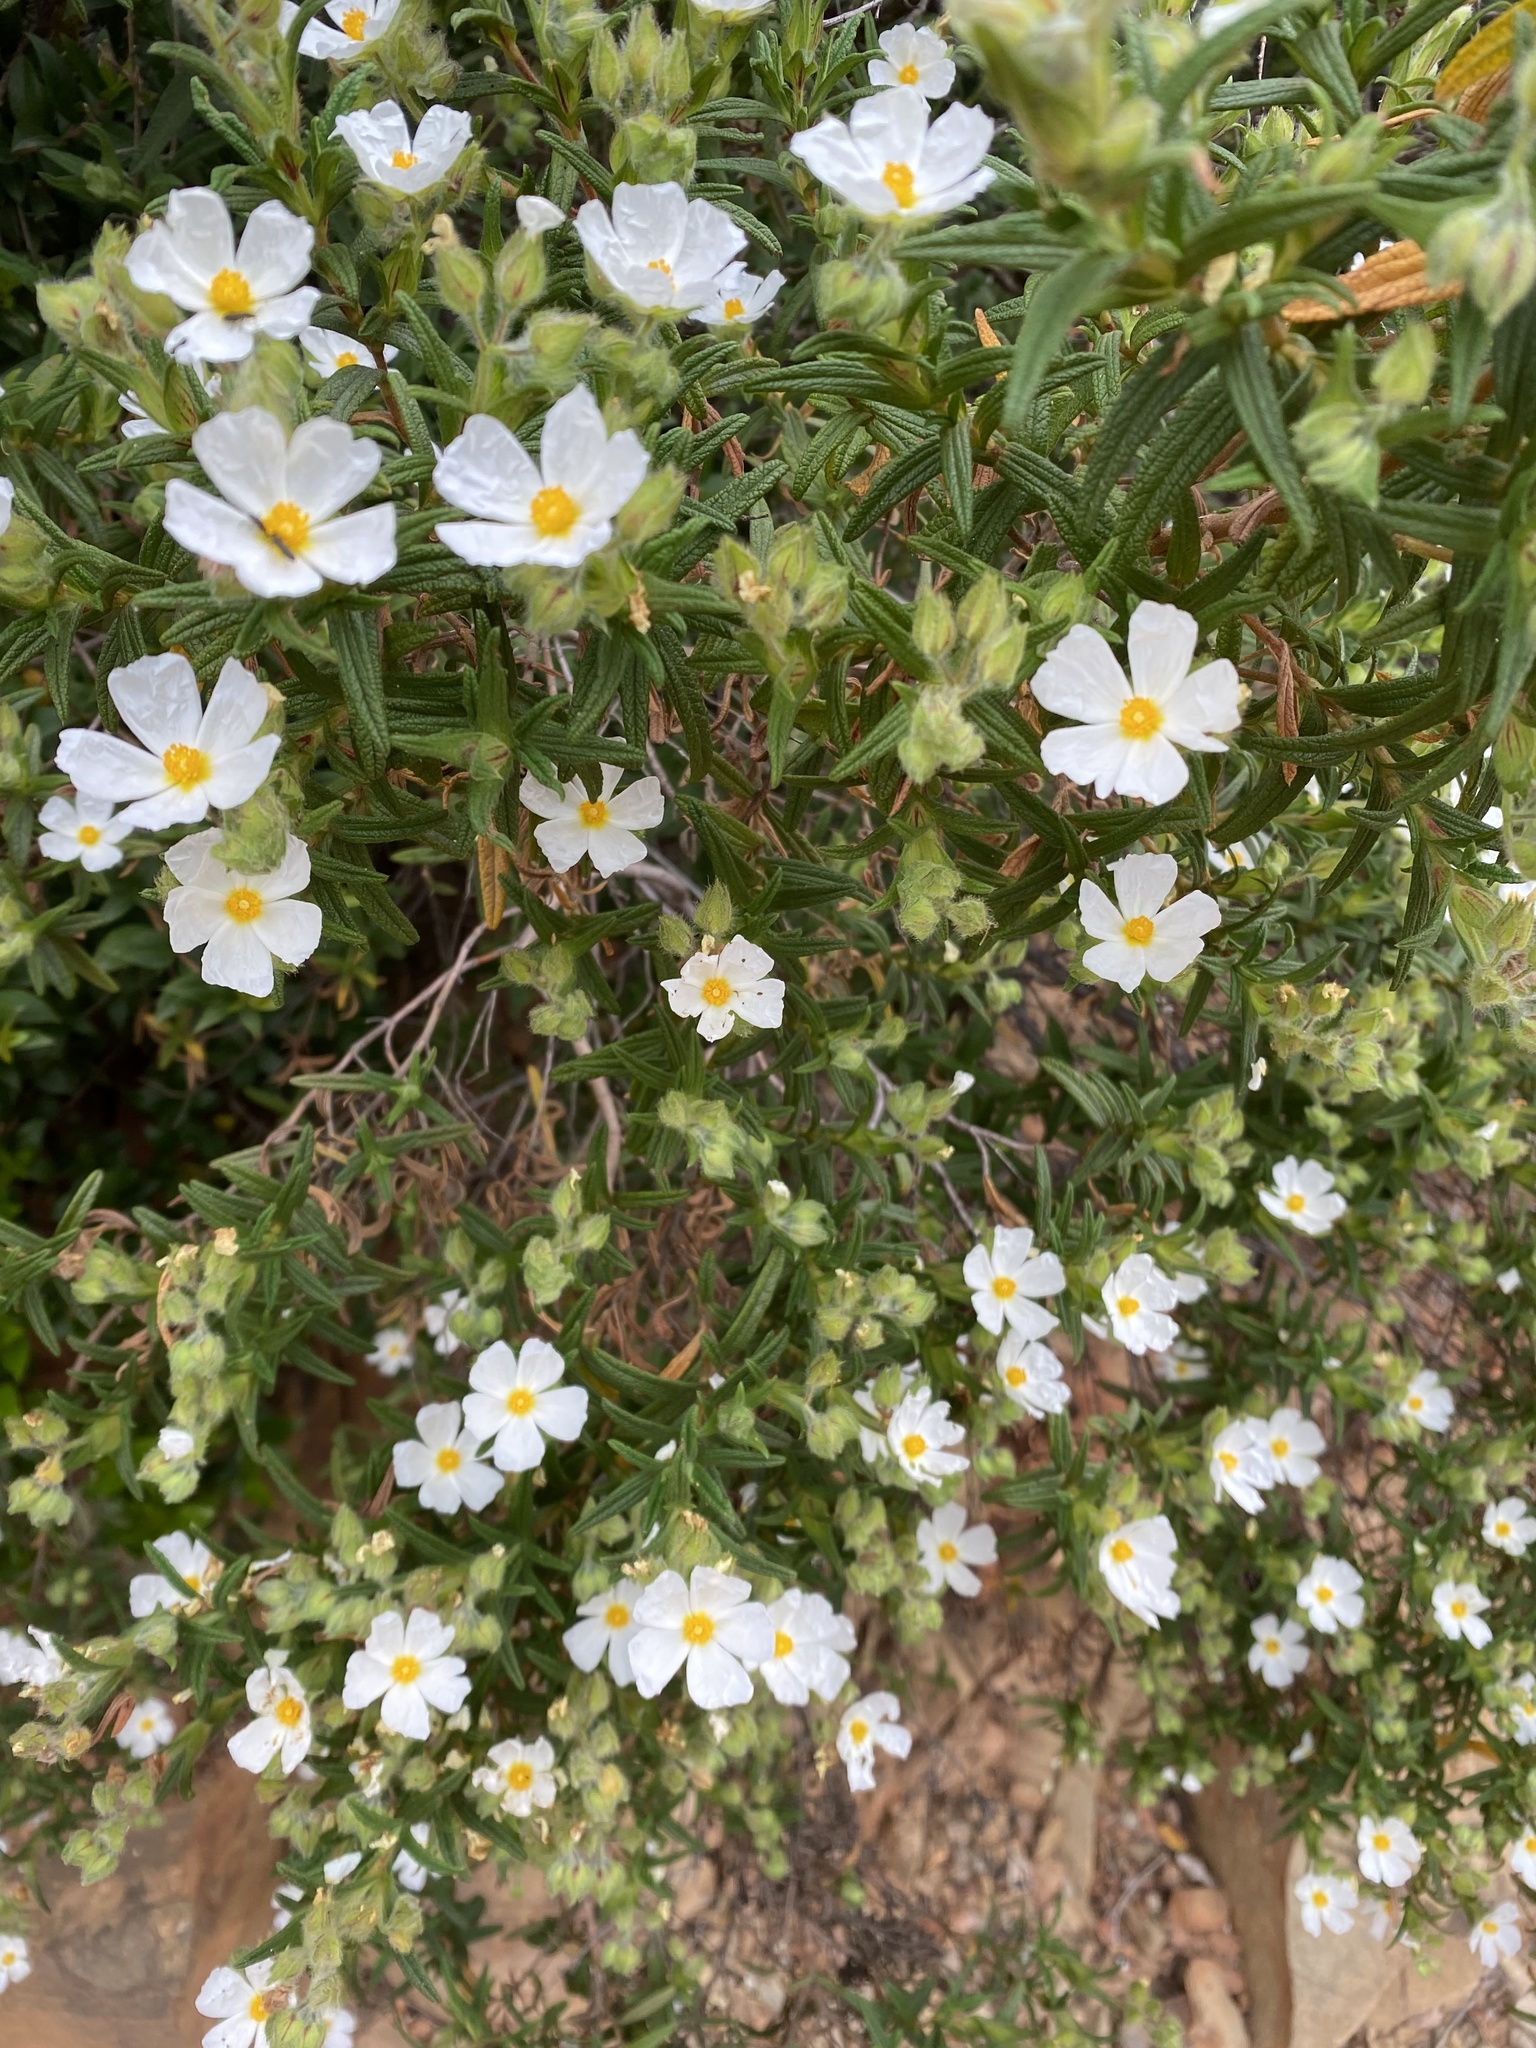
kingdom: Plantae
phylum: Tracheophyta
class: Magnoliopsida
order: Malvales
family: Cistaceae
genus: Cistus
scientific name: Cistus monspeliensis
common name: Montpelier cistus
